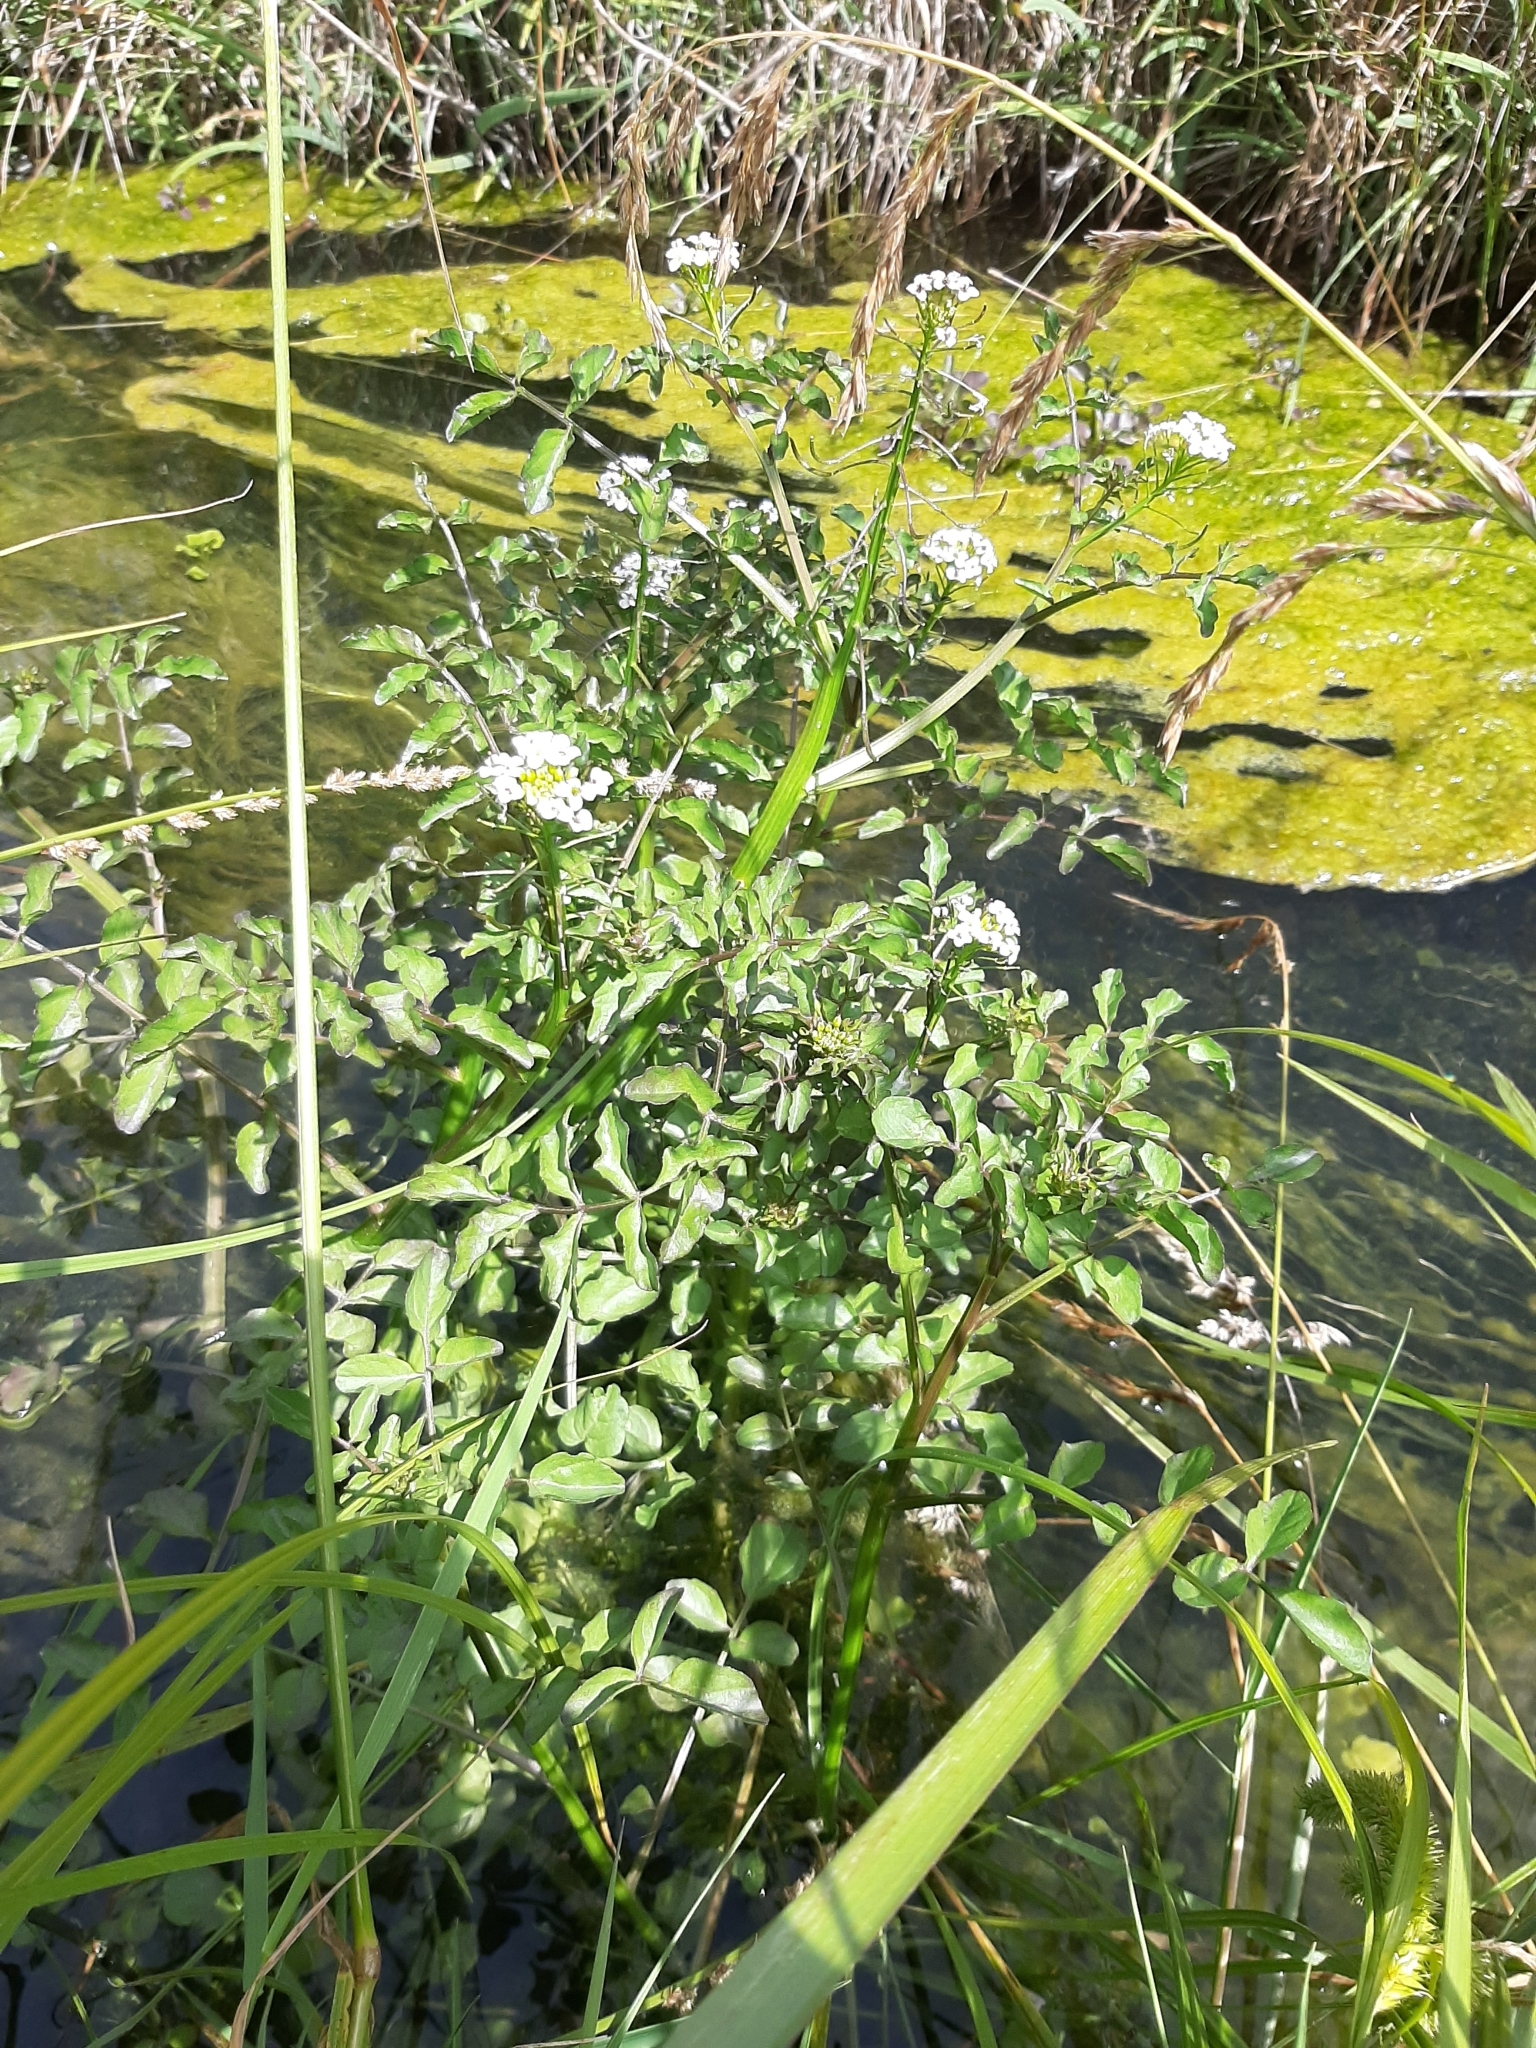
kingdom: Plantae
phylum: Tracheophyta
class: Magnoliopsida
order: Brassicales
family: Brassicaceae
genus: Nasturtium
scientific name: Nasturtium microphyllum
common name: Onerow yellowcress
